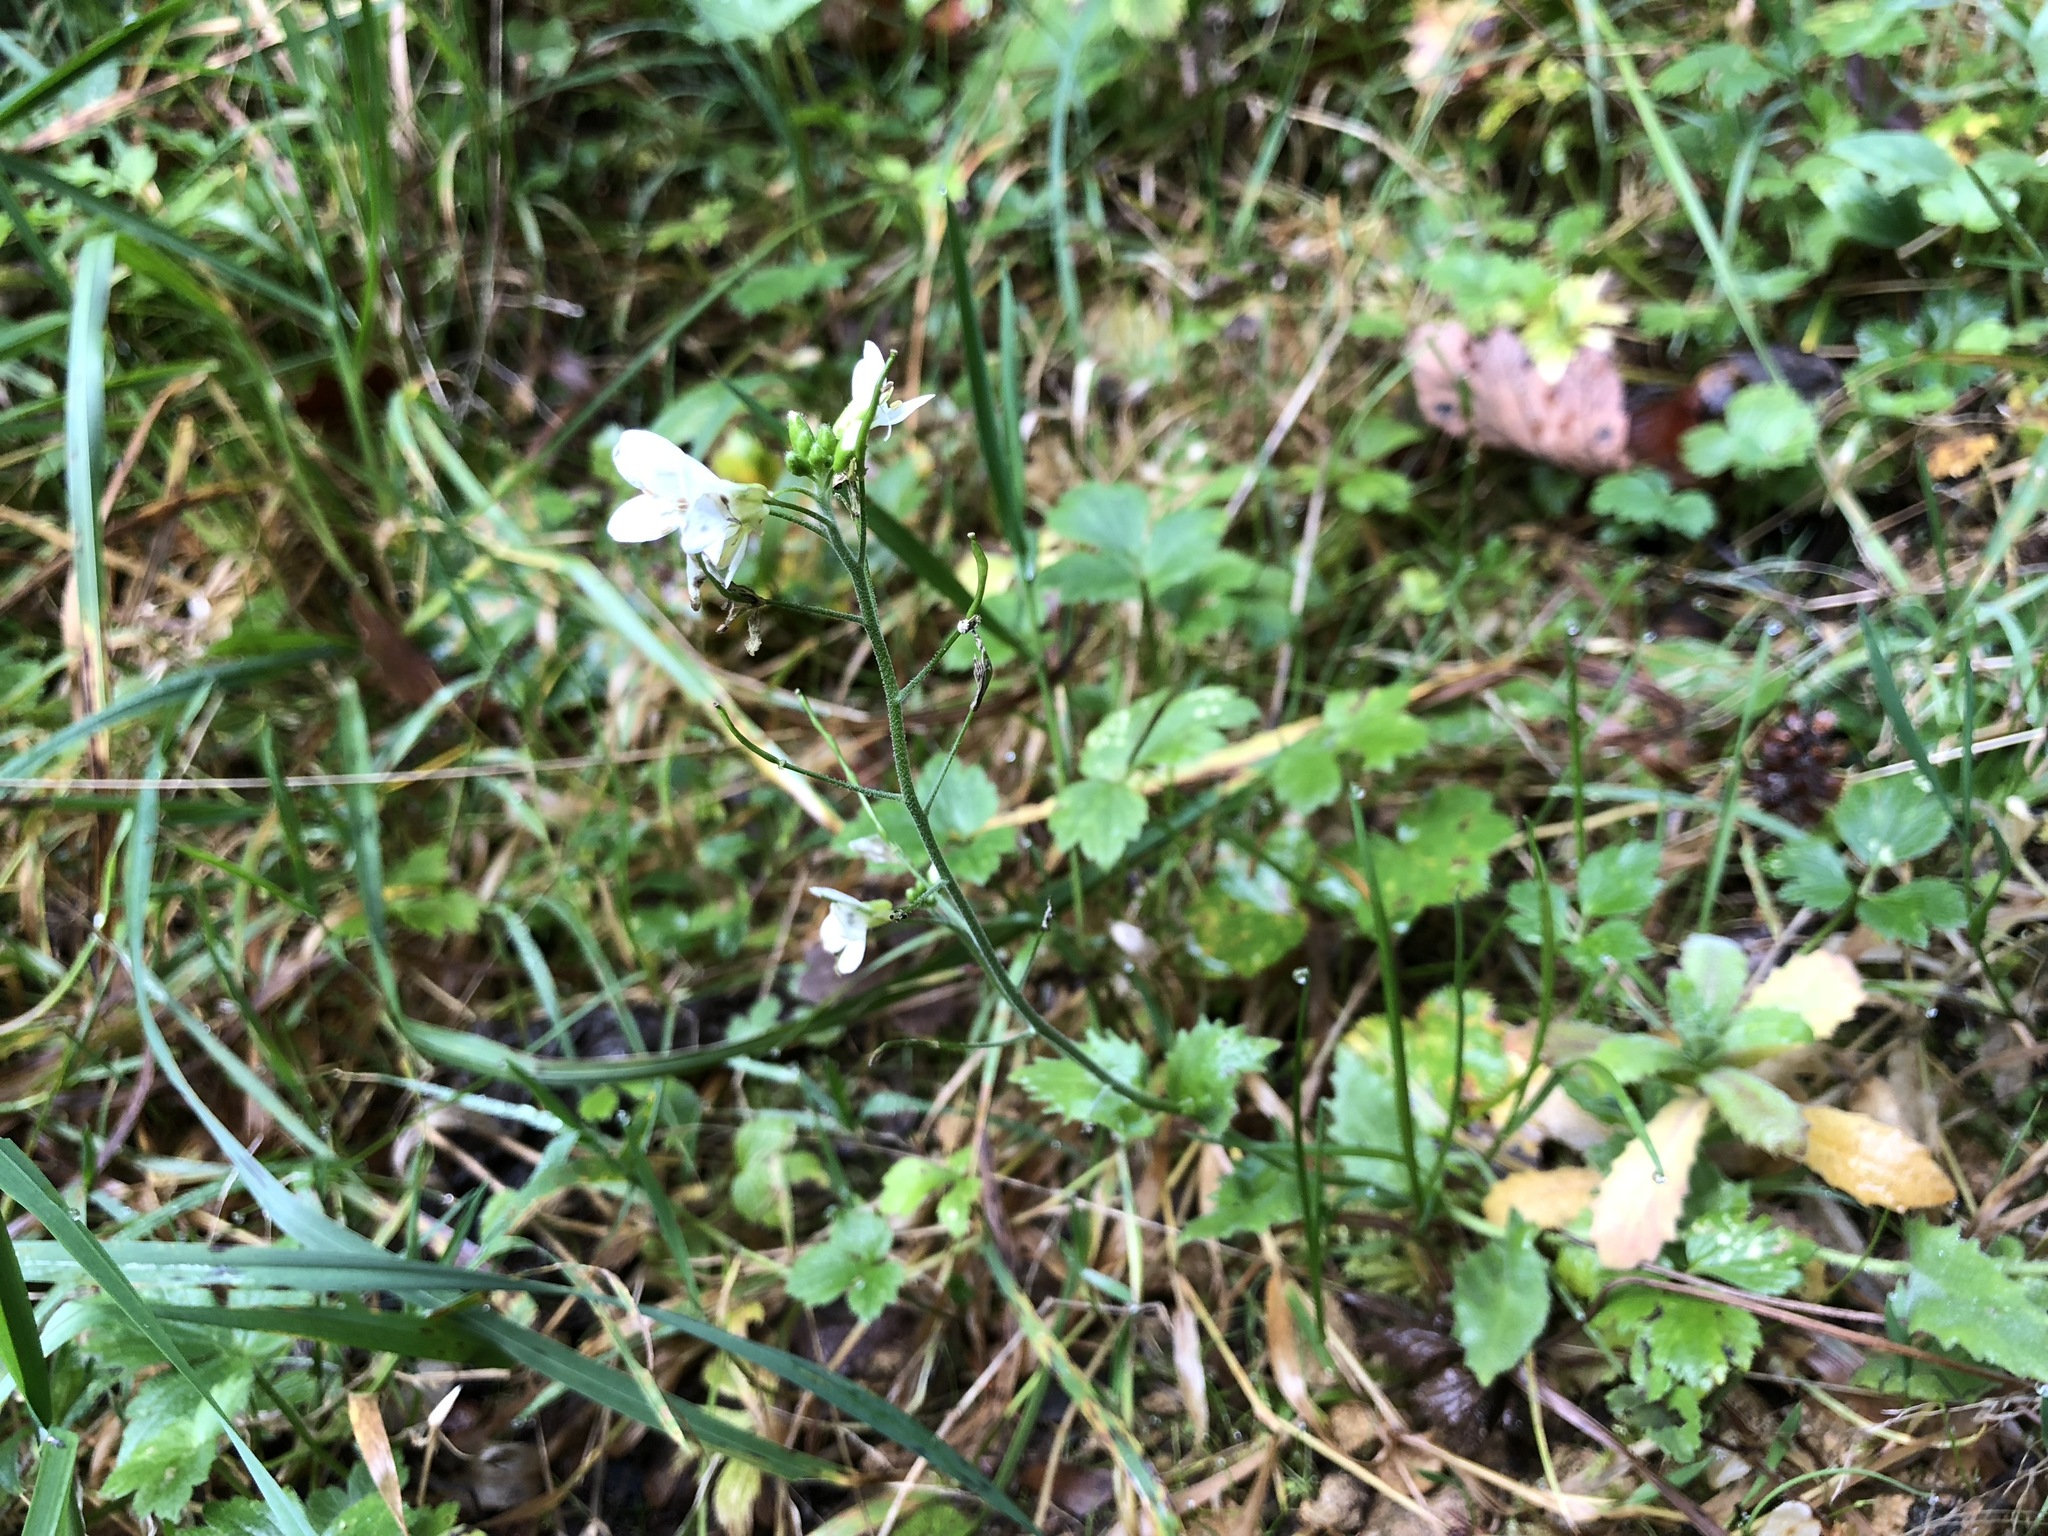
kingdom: Plantae
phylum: Tracheophyta
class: Magnoliopsida
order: Brassicales
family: Brassicaceae
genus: Arabis
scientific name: Arabis alpina
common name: Alpine rock-cress
